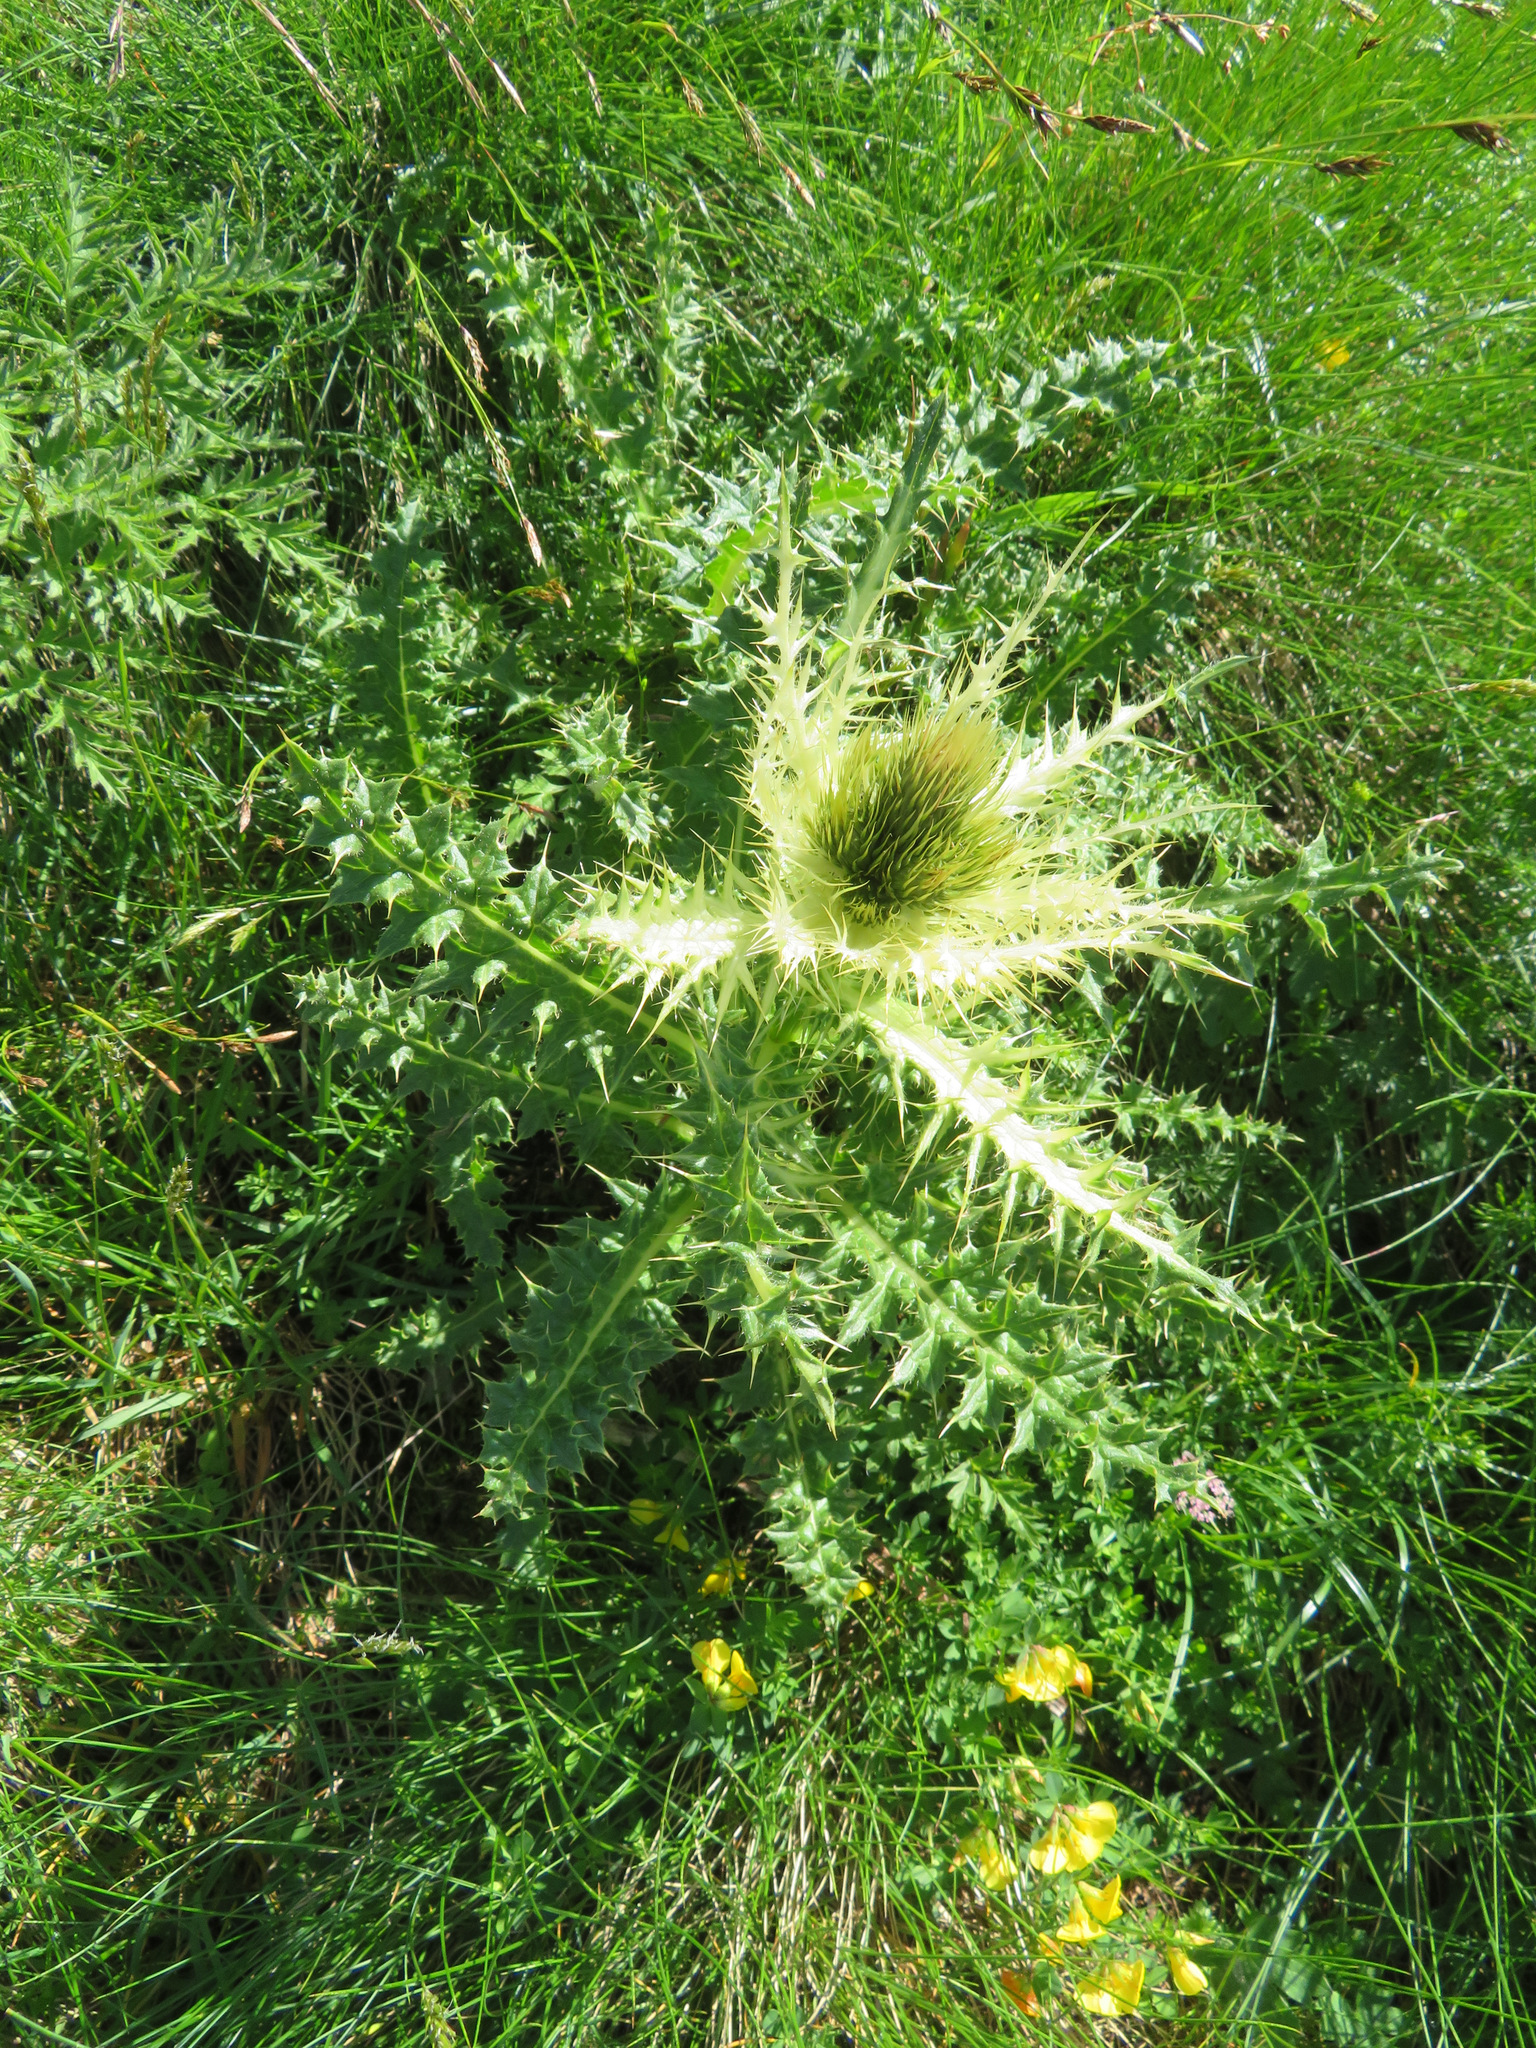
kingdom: Plantae
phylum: Tracheophyta
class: Magnoliopsida
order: Asterales
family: Asteraceae
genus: Cirsium
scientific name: Cirsium spinosissimum
